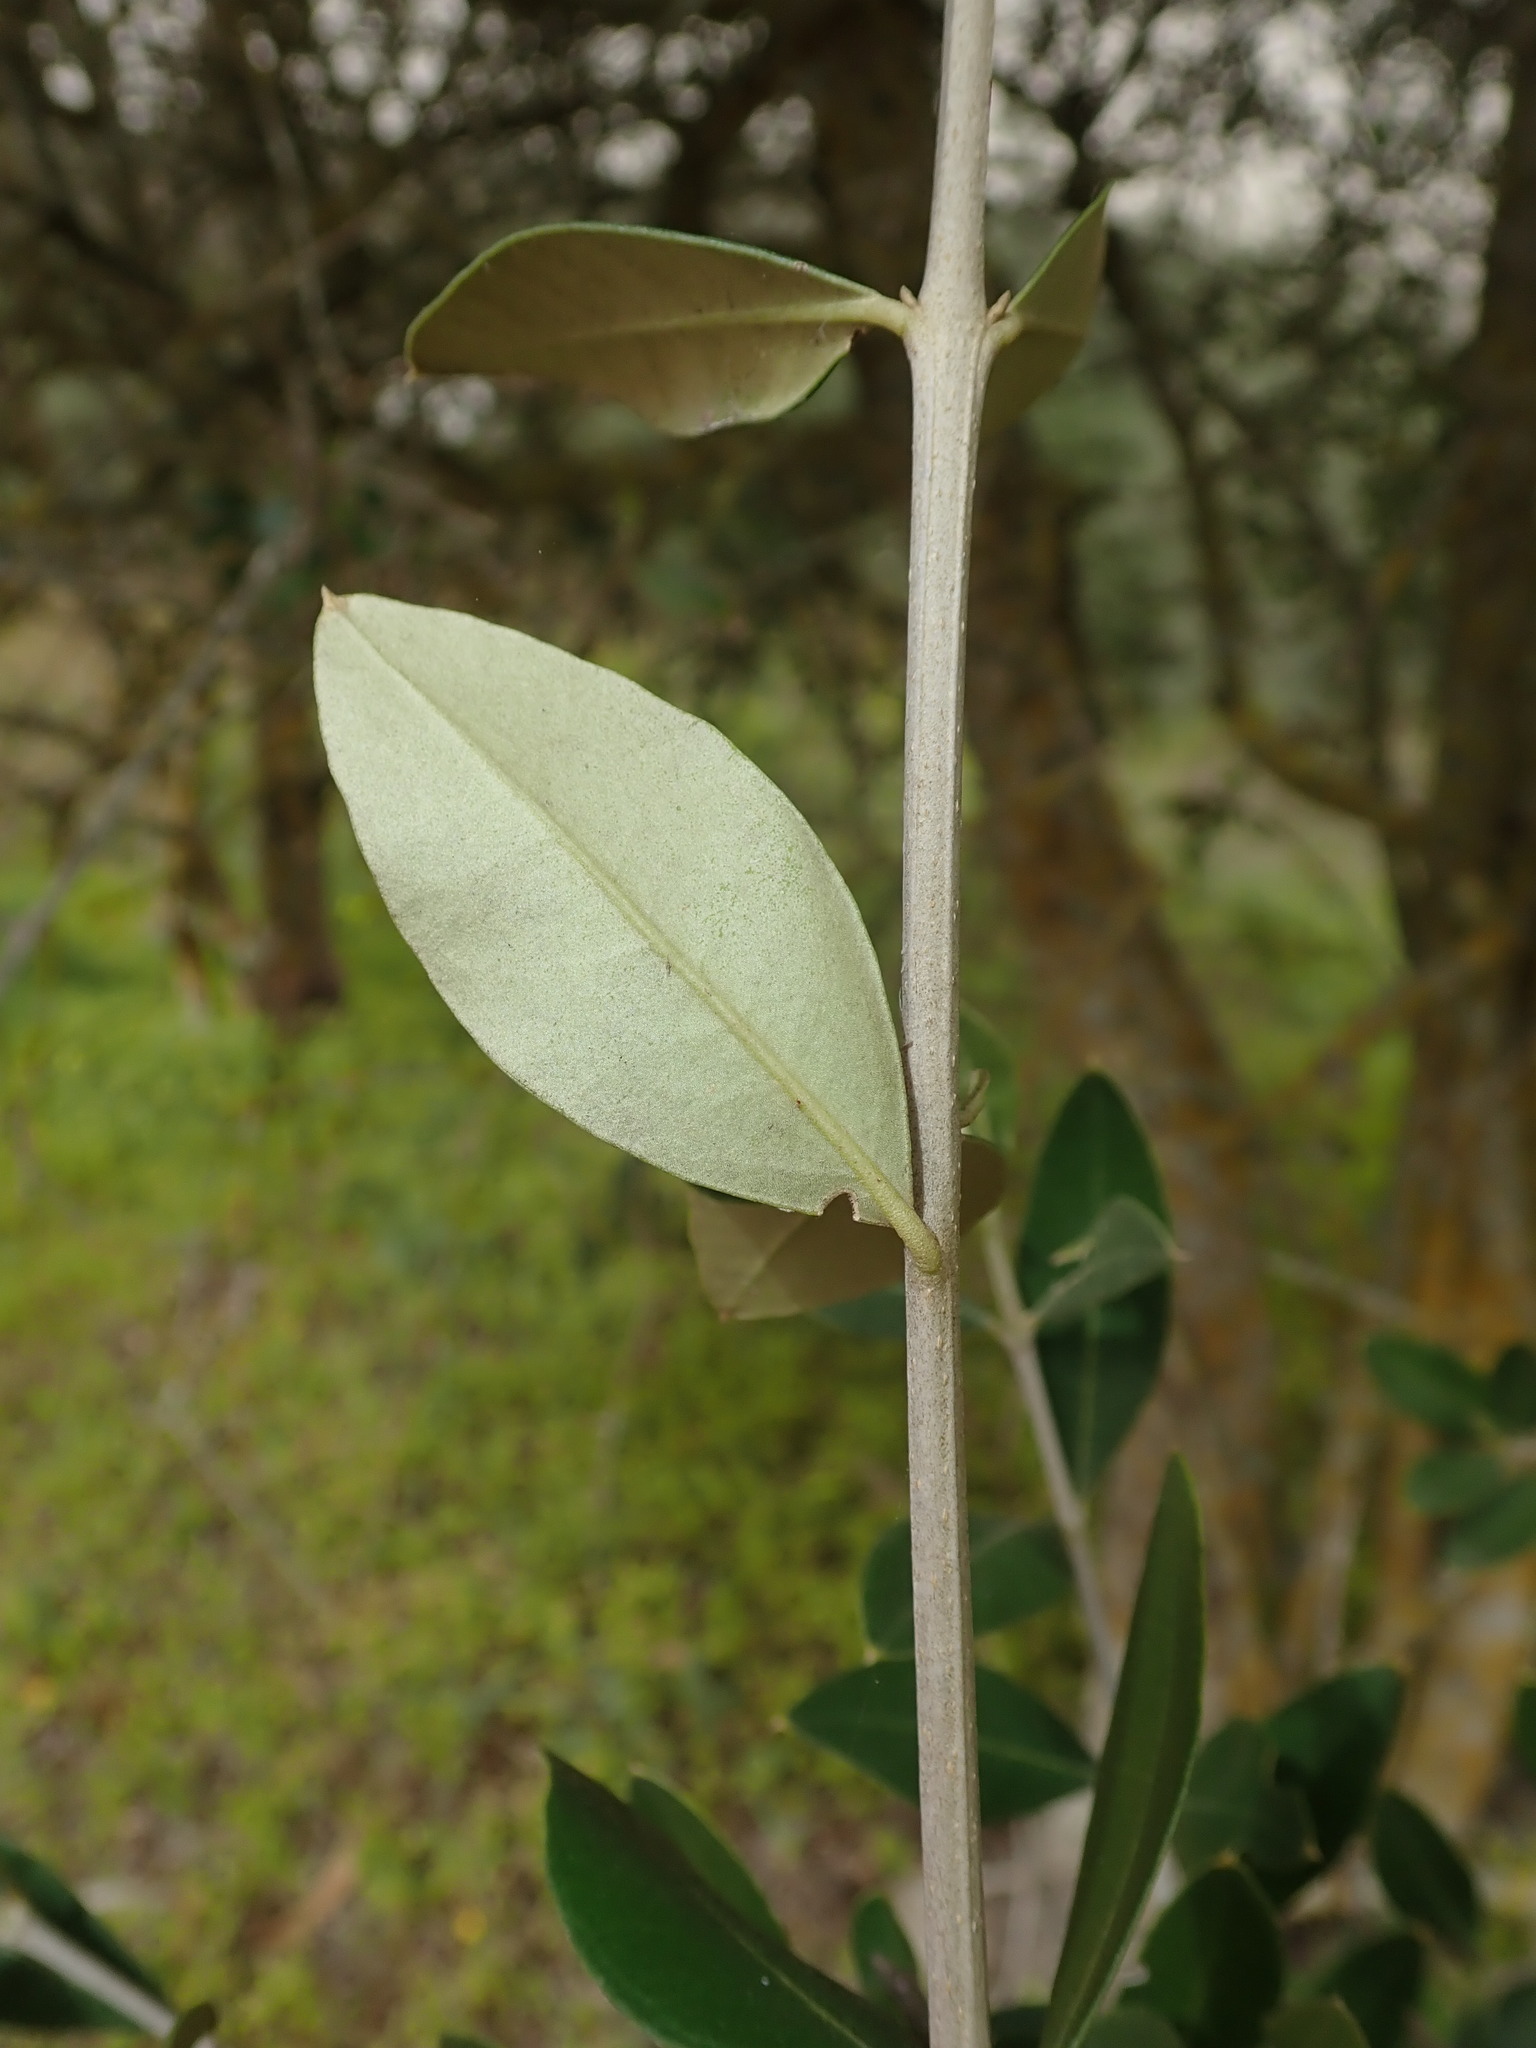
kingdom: Plantae
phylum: Tracheophyta
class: Magnoliopsida
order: Lamiales
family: Oleaceae
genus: Olea
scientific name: Olea europaea
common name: Olive
